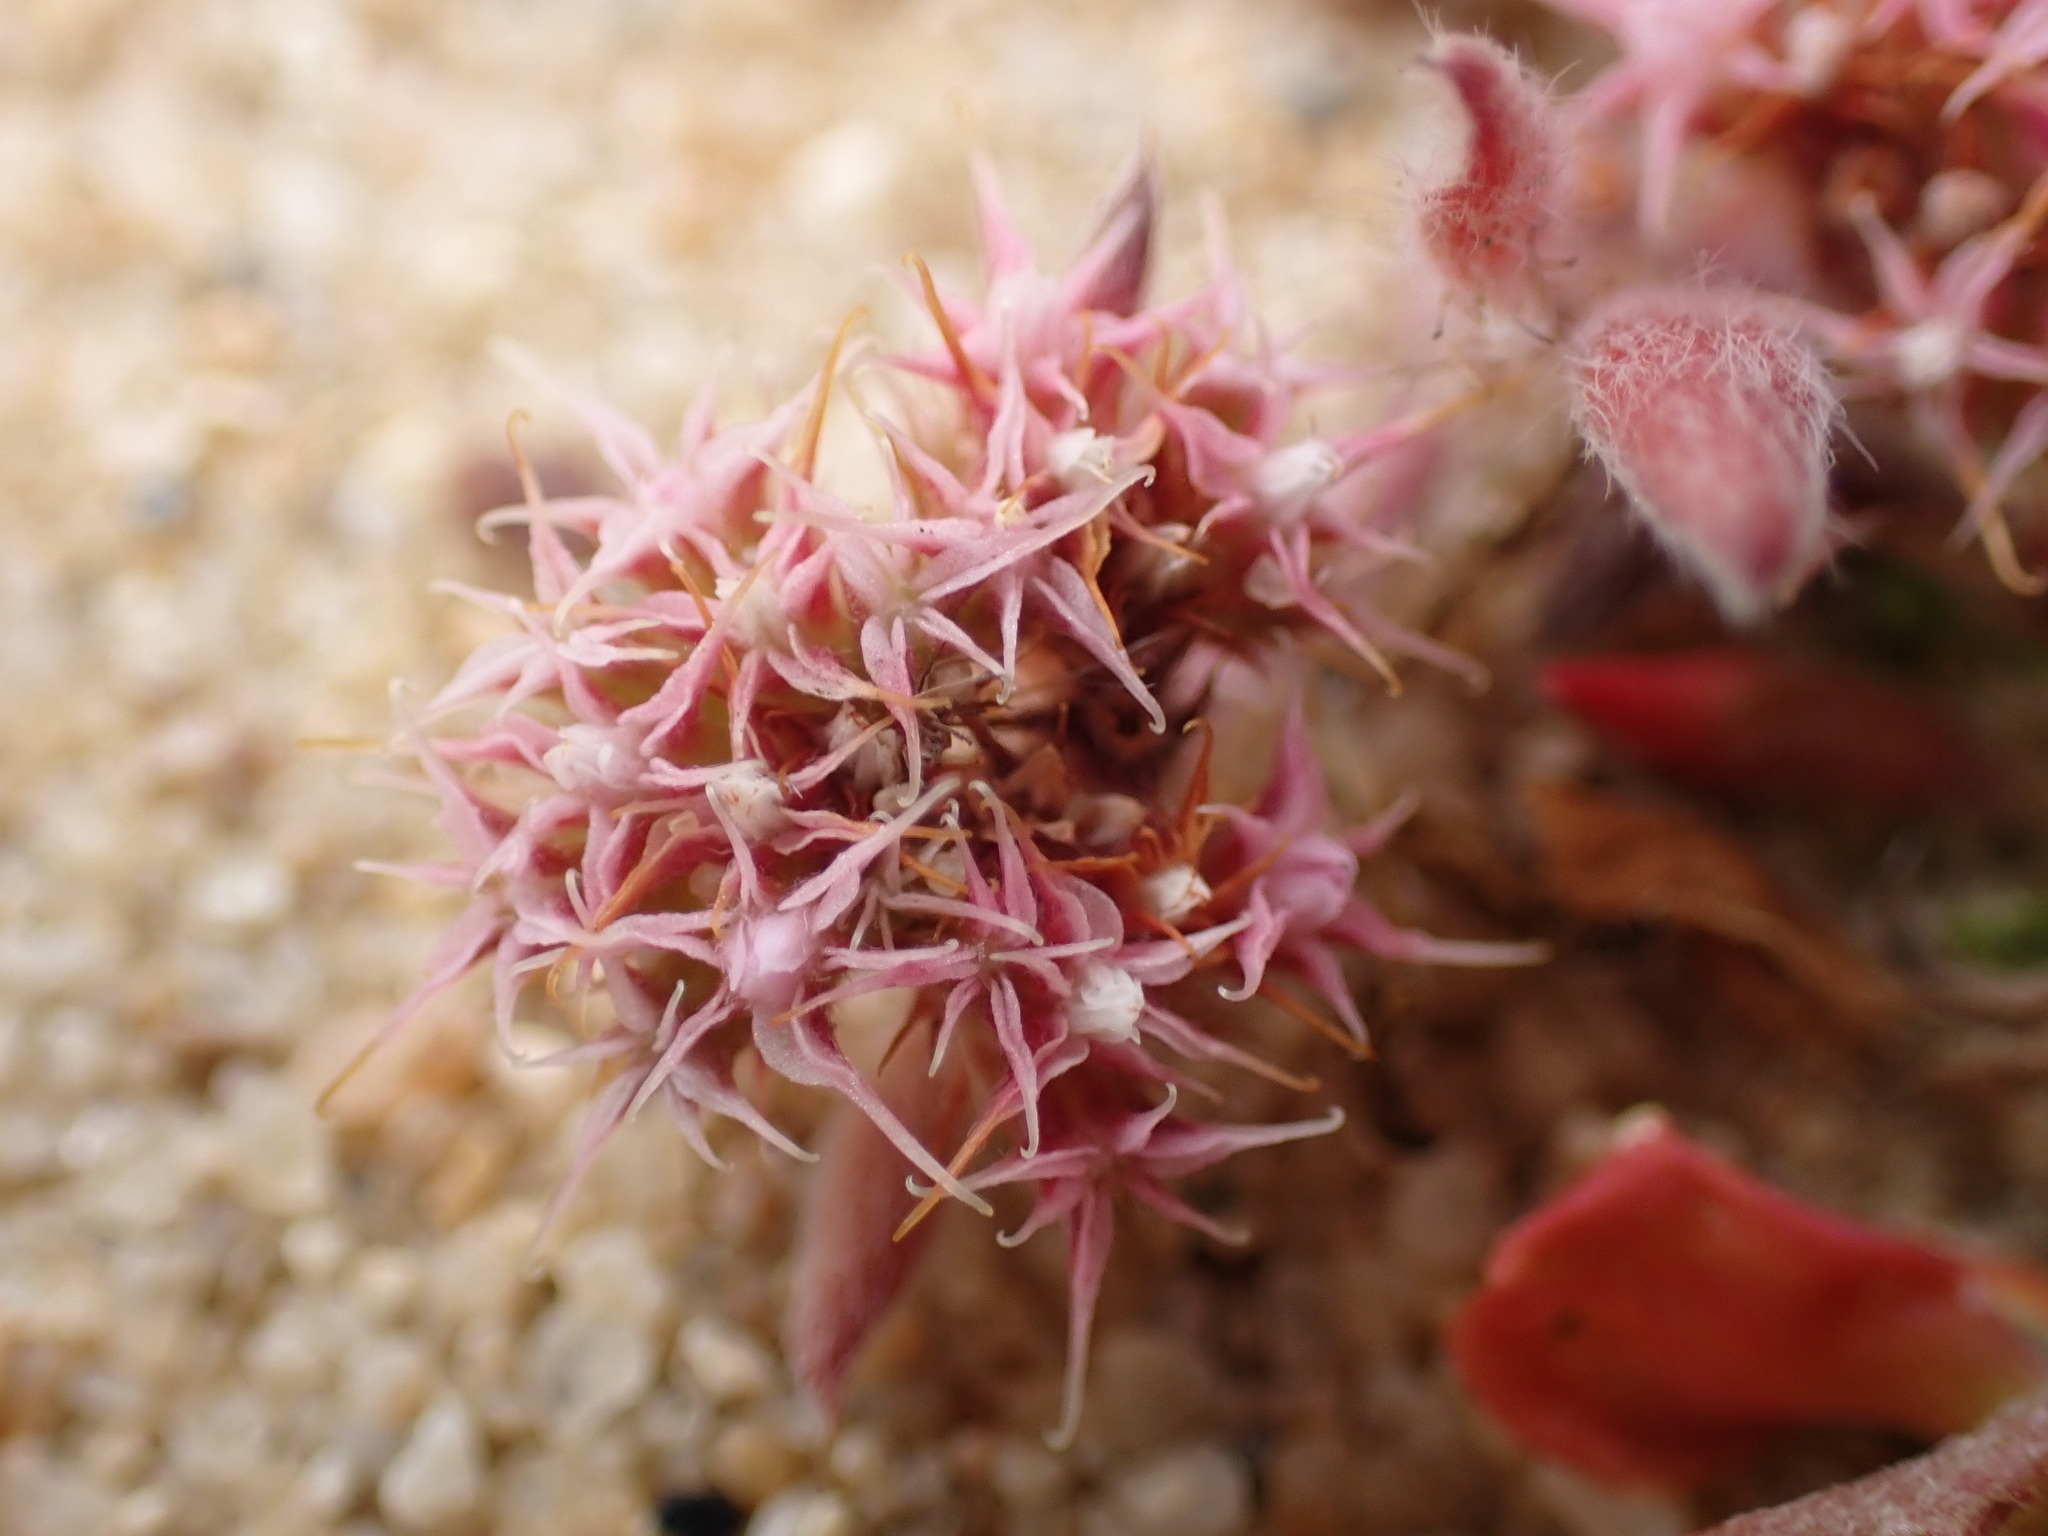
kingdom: Plantae
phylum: Tracheophyta
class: Magnoliopsida
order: Caryophyllales
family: Polygonaceae
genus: Chorizanthe
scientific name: Chorizanthe pungens
